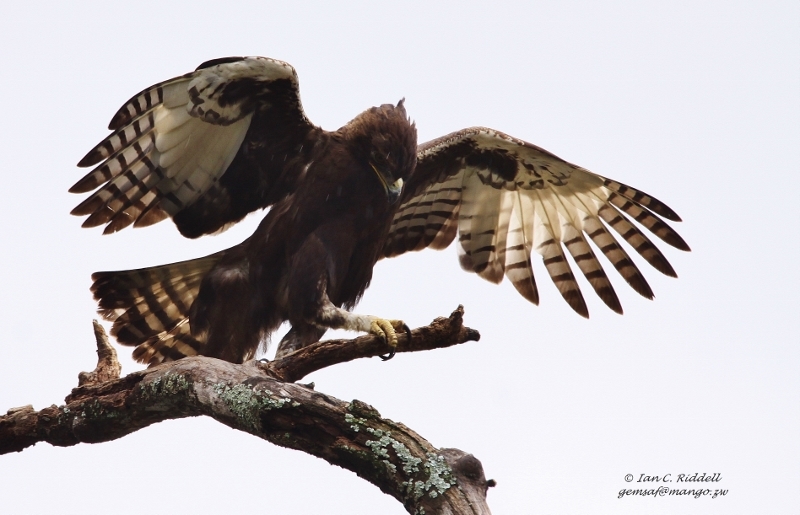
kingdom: Animalia
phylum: Chordata
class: Aves
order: Accipitriformes
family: Accipitridae
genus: Lophaetus
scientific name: Lophaetus occipitalis
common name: Long-crested eagle
